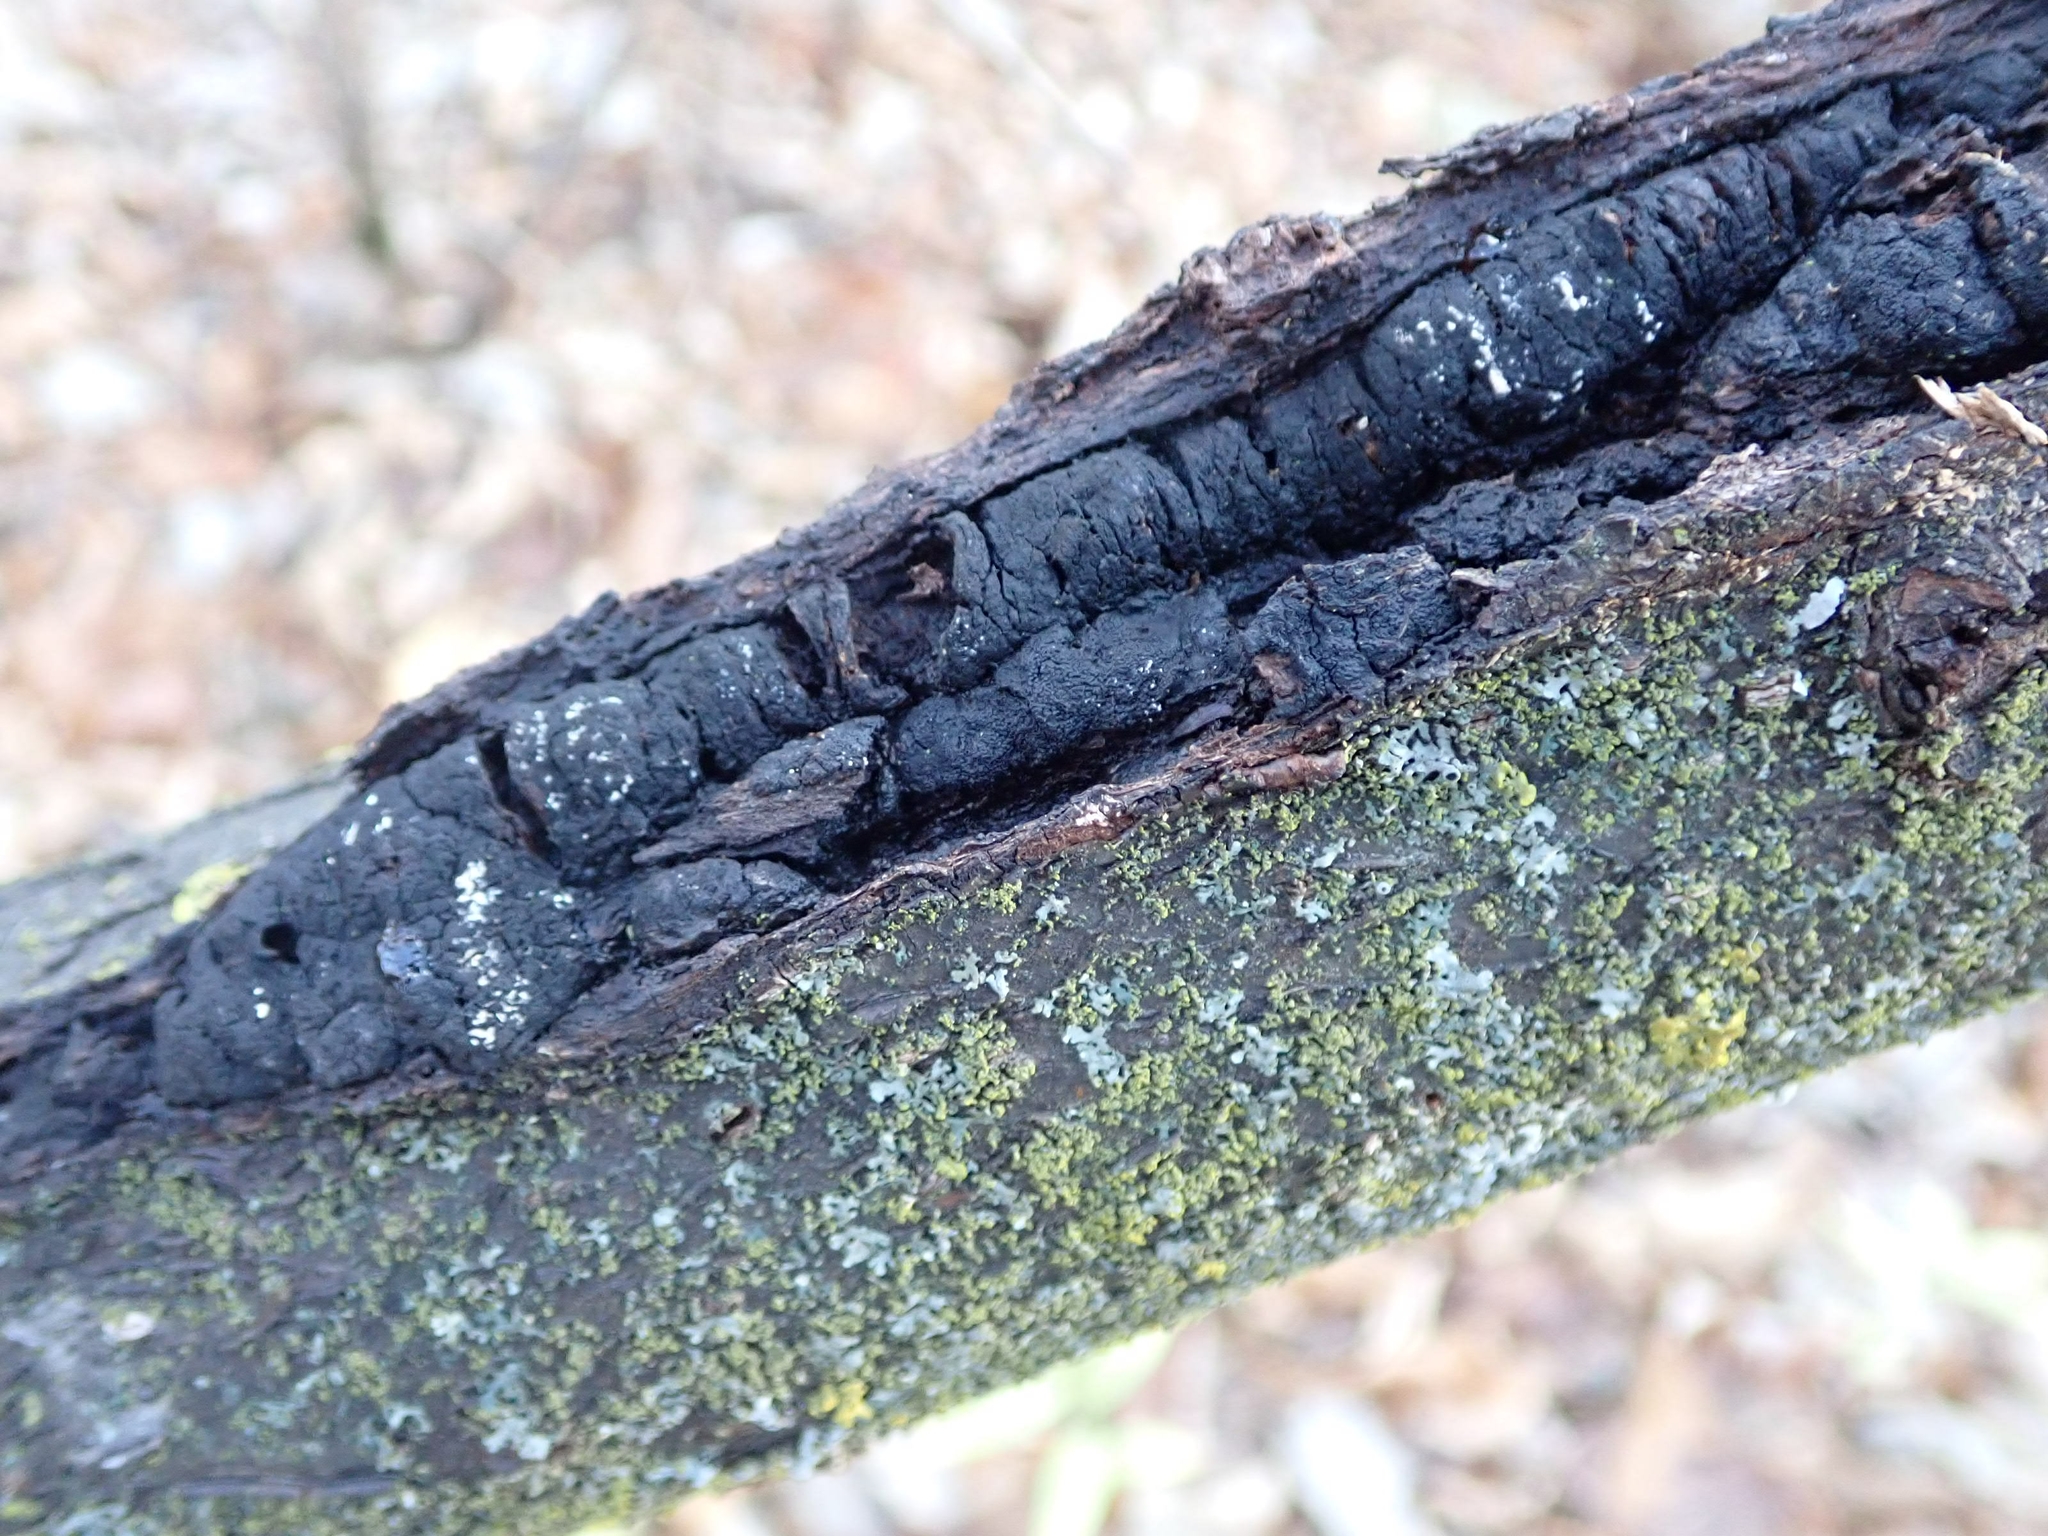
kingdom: Fungi
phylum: Ascomycota
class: Dothideomycetes
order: Venturiales
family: Venturiaceae
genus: Apiosporina
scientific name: Apiosporina morbosa
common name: Black knot
